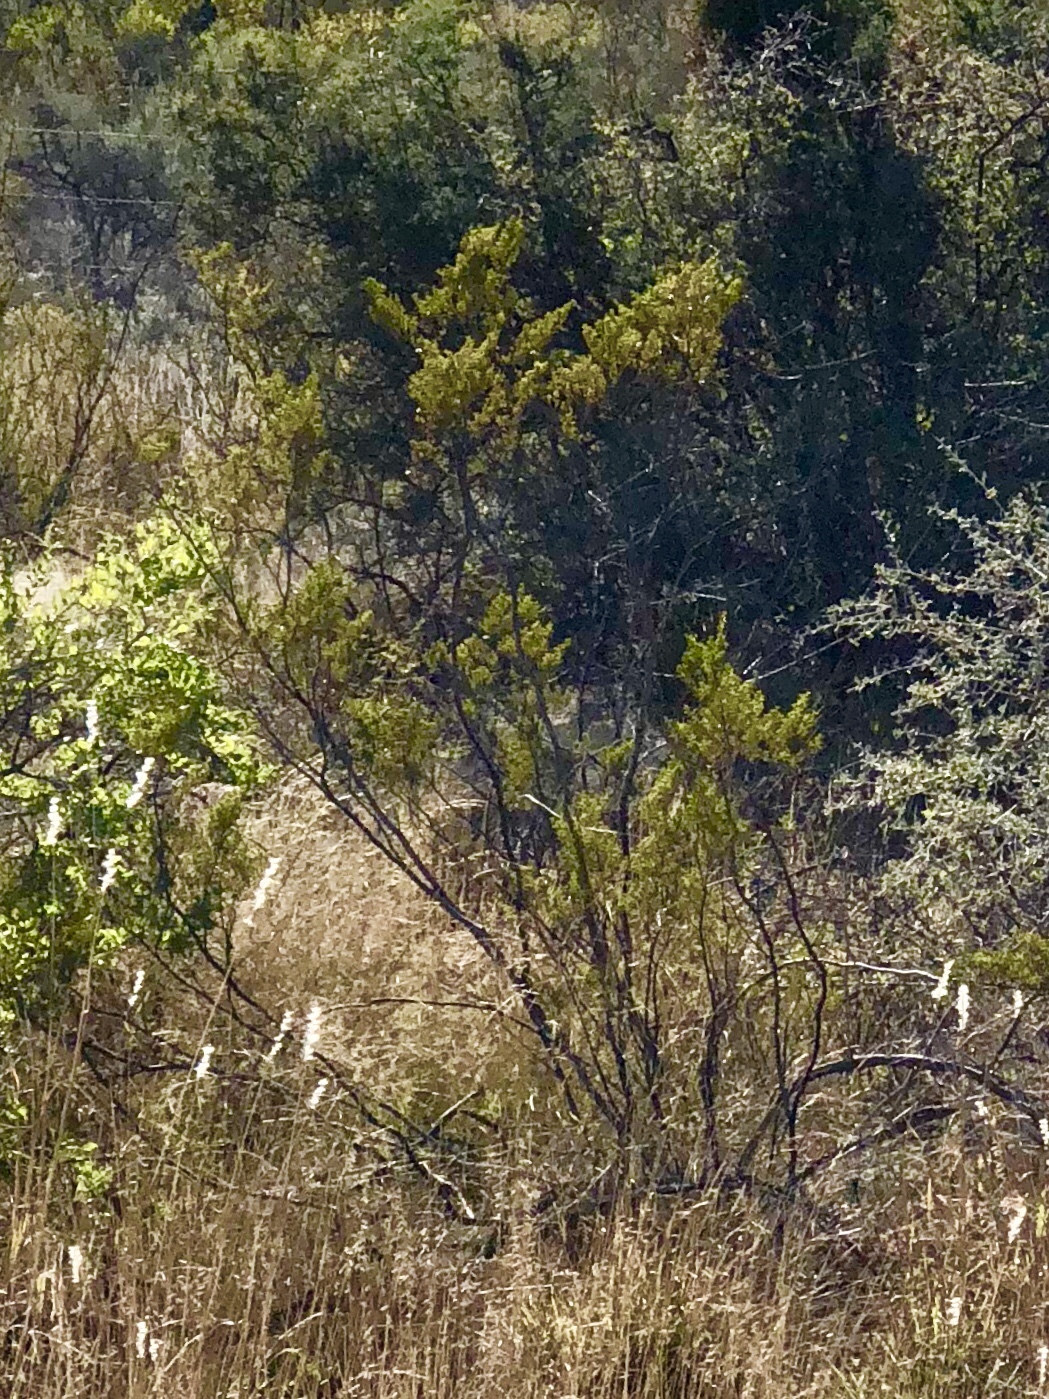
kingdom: Plantae
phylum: Tracheophyta
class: Magnoliopsida
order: Zygophyllales
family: Zygophyllaceae
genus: Larrea
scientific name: Larrea tridentata
